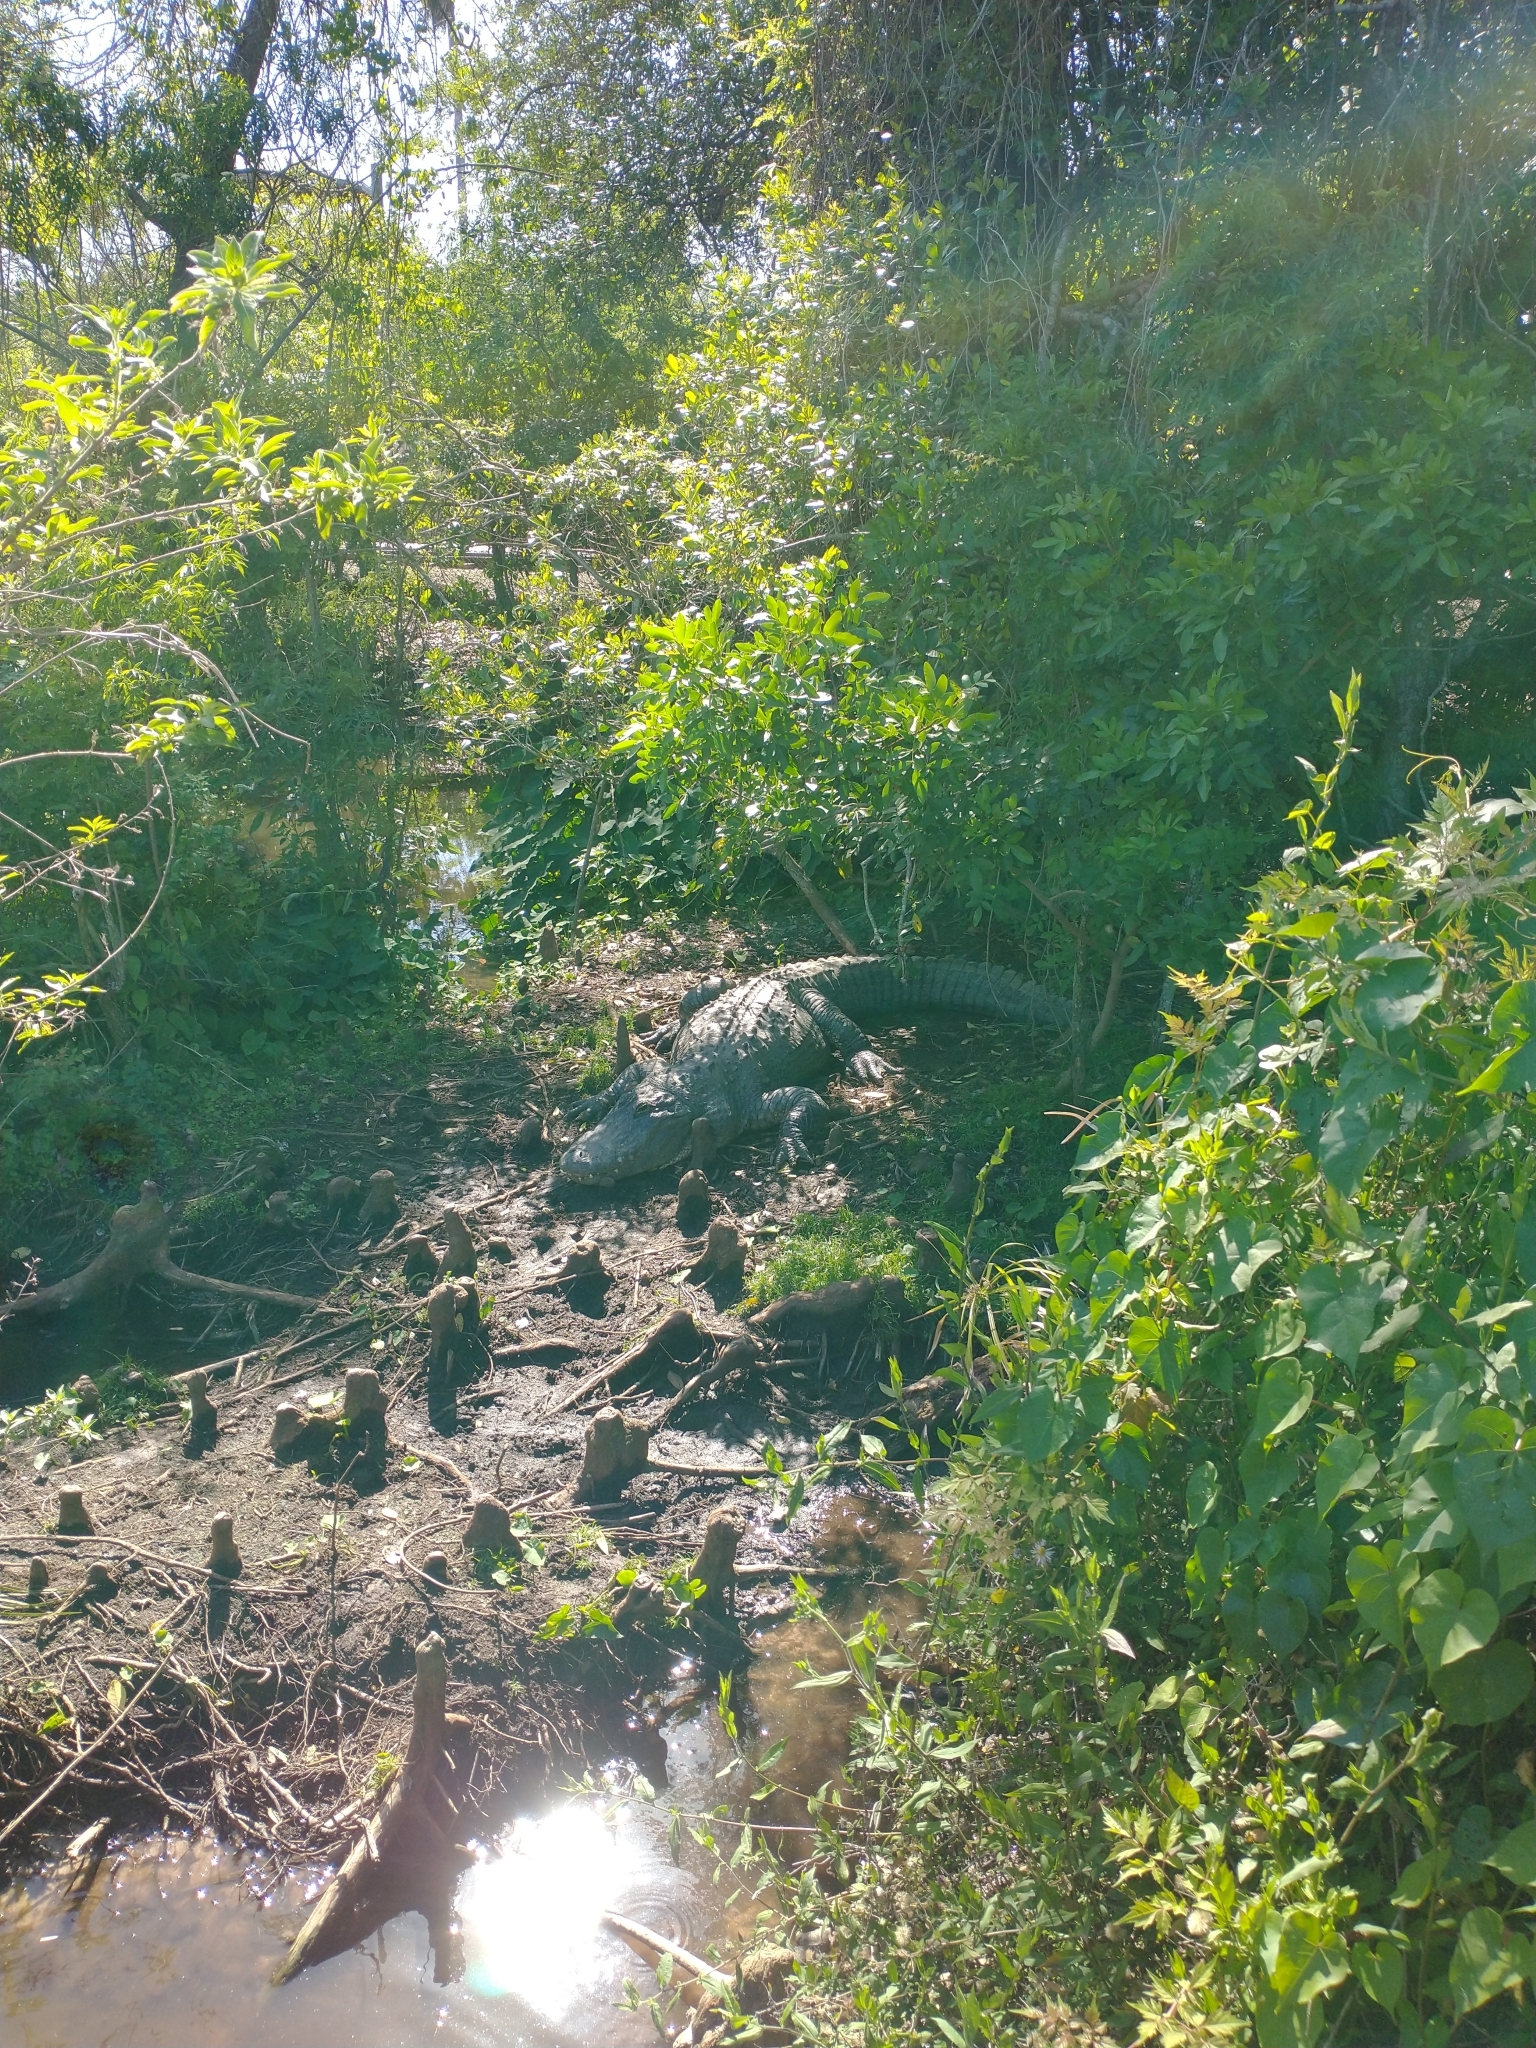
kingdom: Animalia
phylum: Chordata
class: Crocodylia
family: Alligatoridae
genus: Alligator
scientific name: Alligator mississippiensis
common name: American alligator
